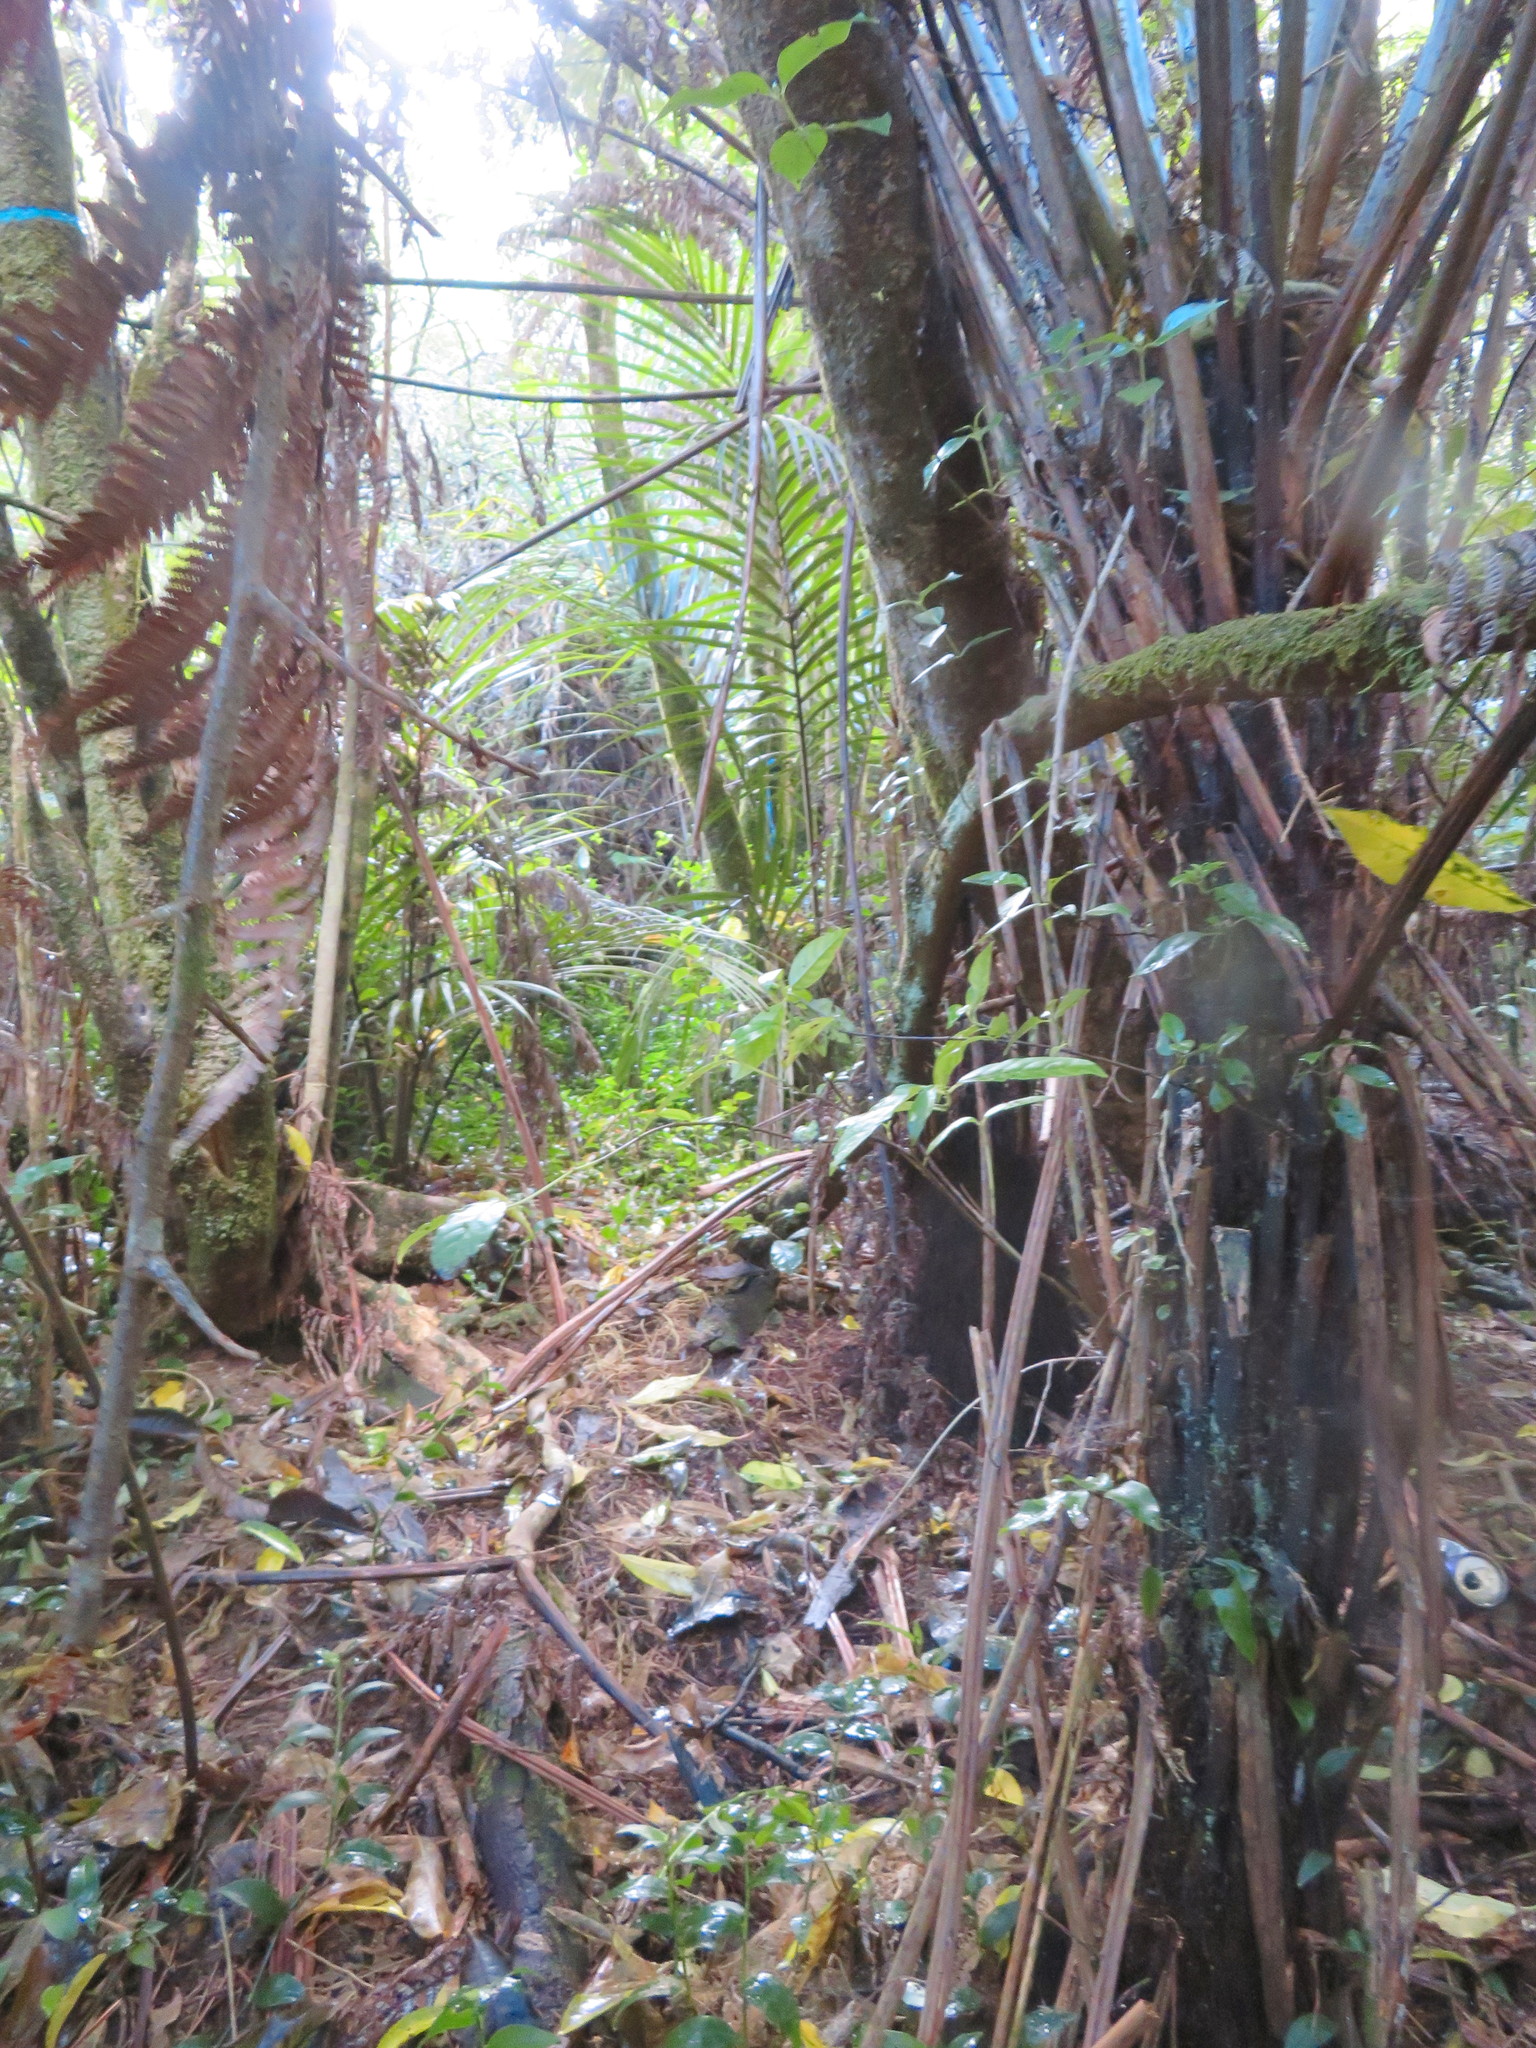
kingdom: Plantae
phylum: Tracheophyta
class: Liliopsida
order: Commelinales
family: Commelinaceae
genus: Tradescantia
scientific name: Tradescantia fluminensis
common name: Wandering-jew
